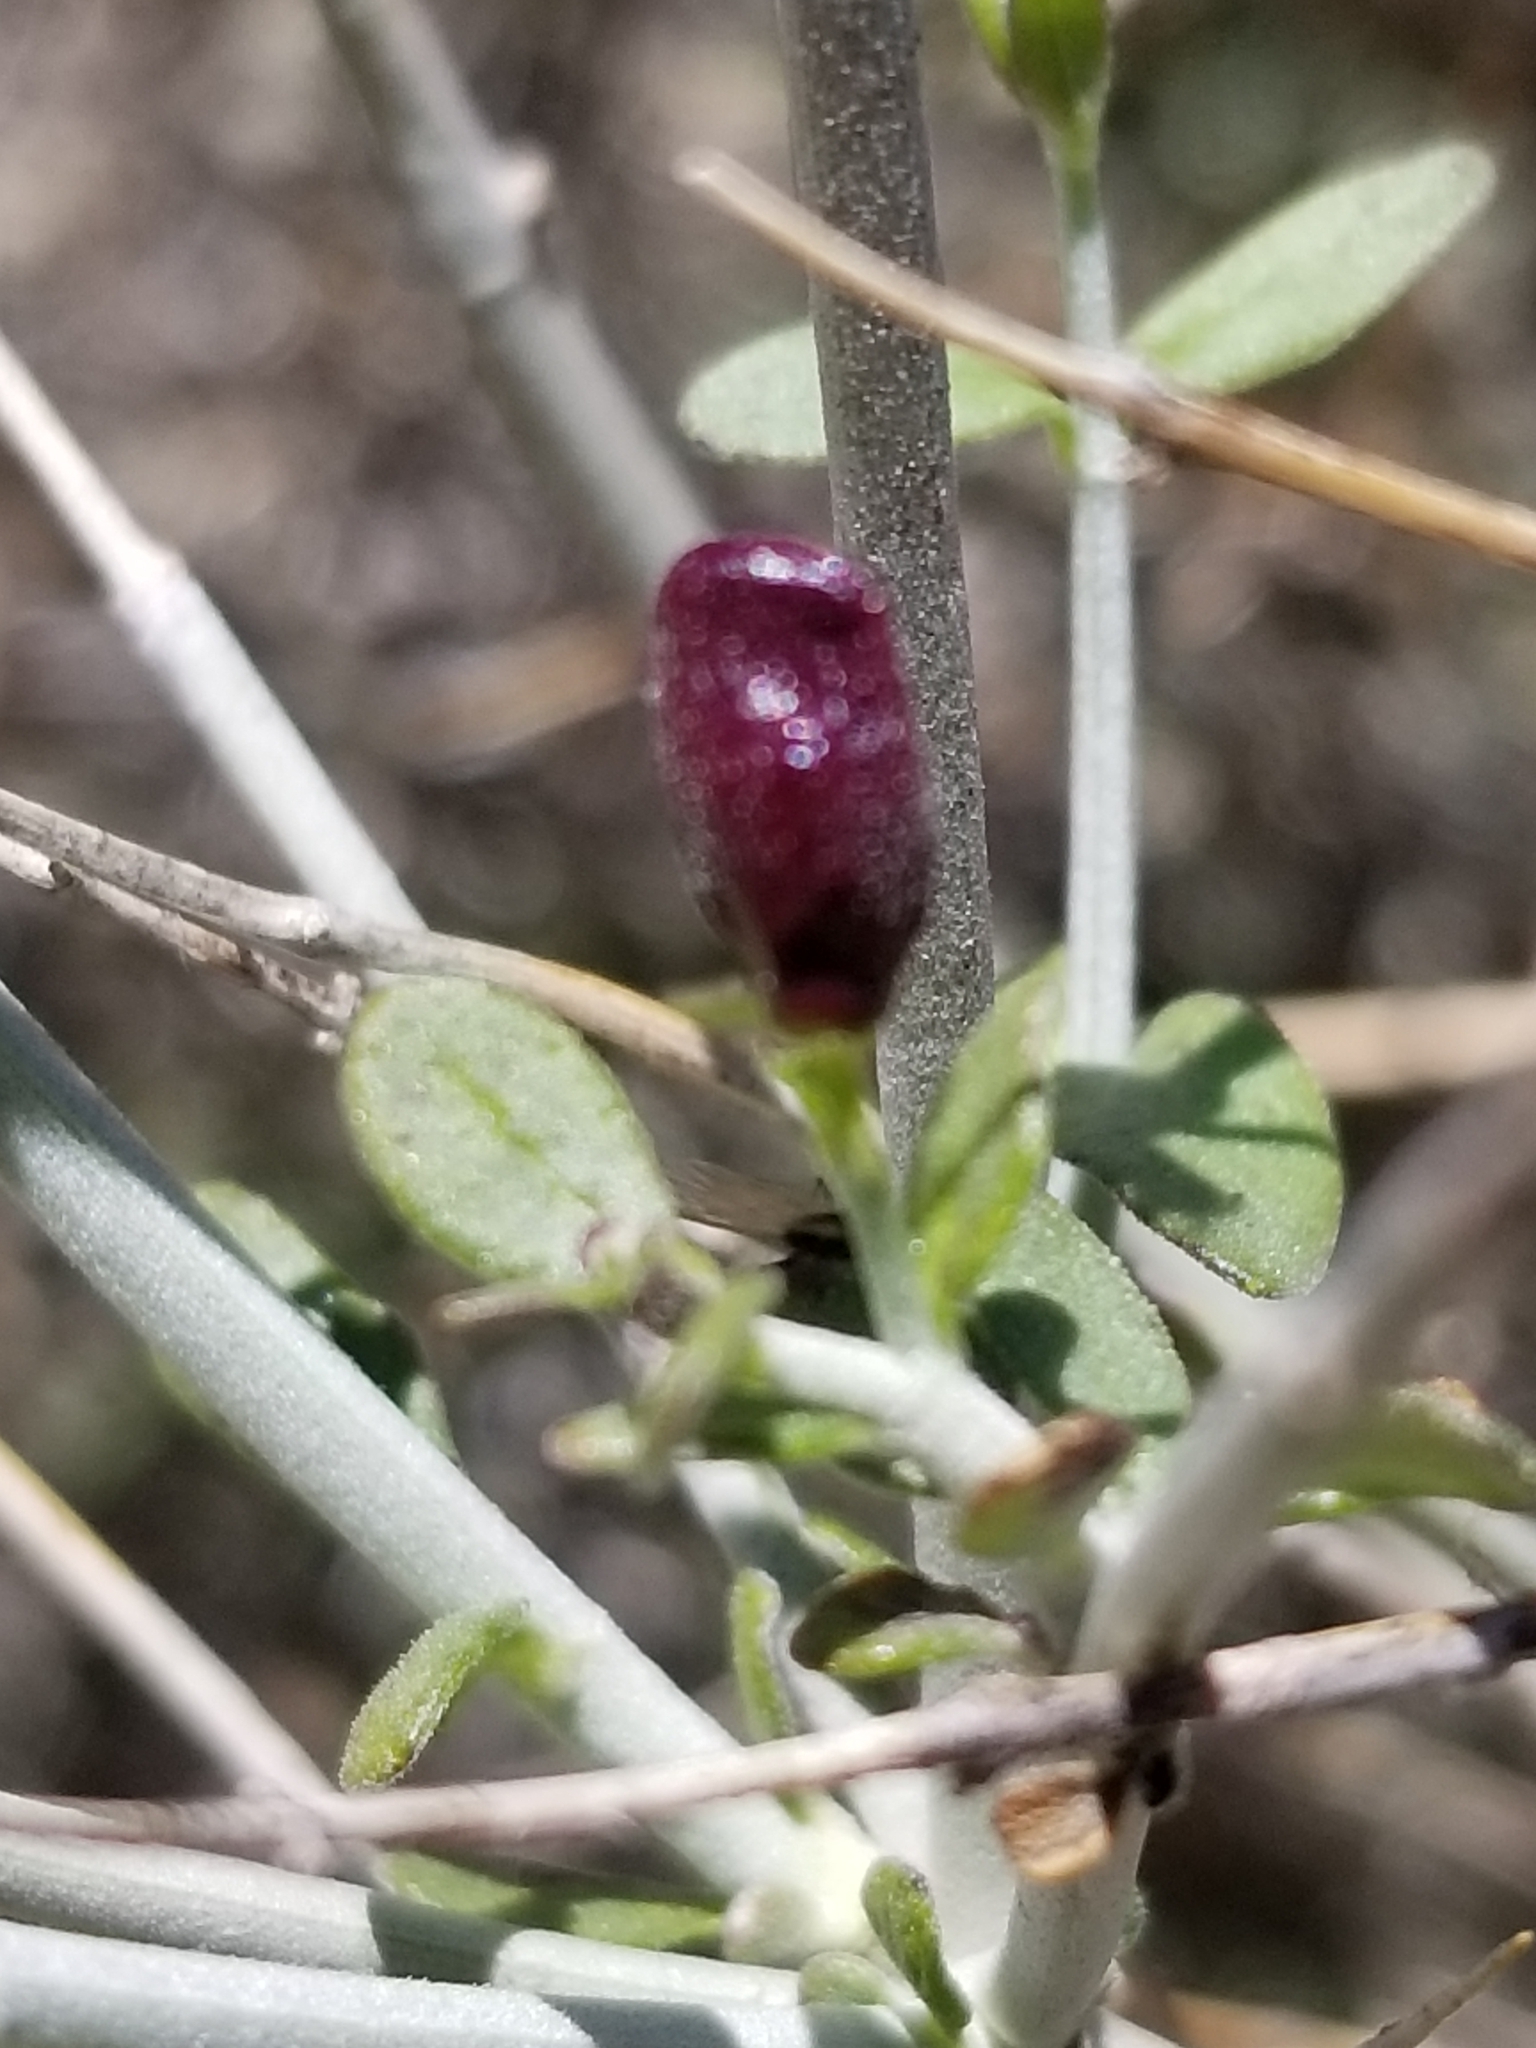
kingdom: Plantae
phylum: Tracheophyta
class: Magnoliopsida
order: Lamiales
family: Lamiaceae
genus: Scutellaria
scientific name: Scutellaria mexicana
